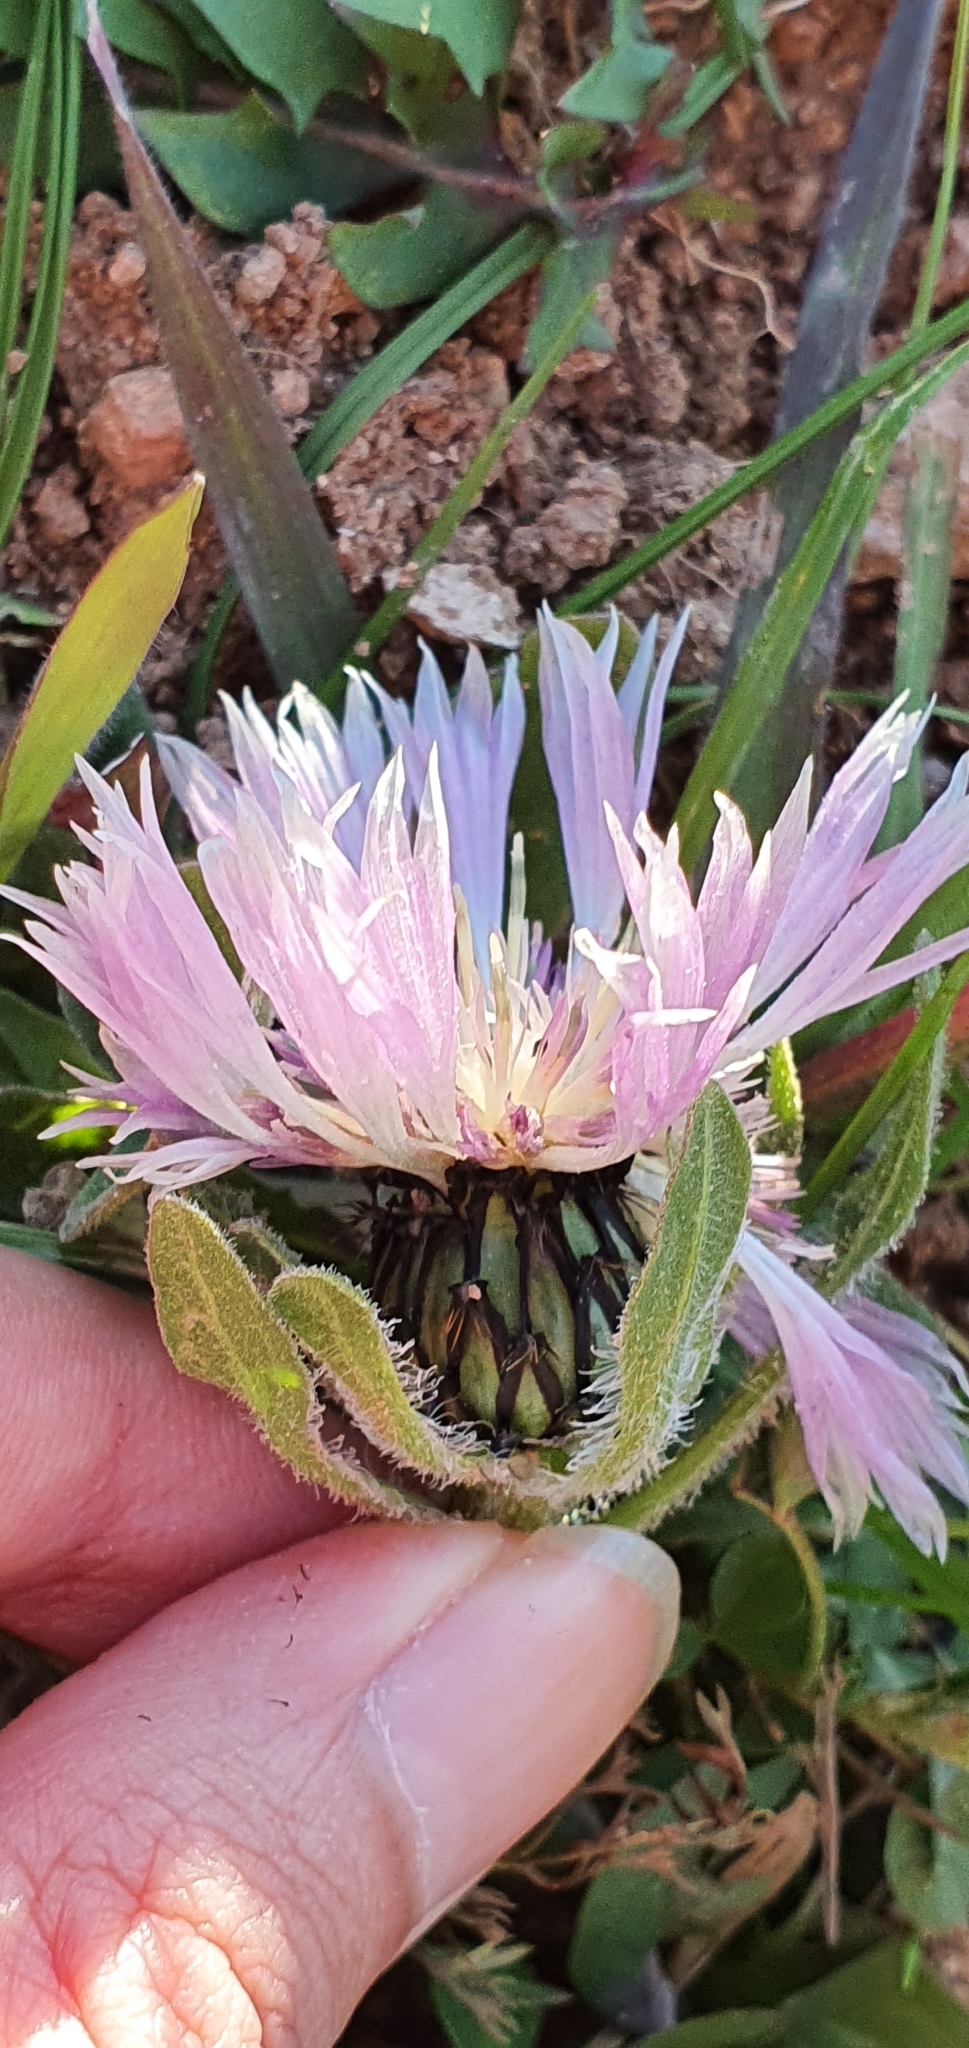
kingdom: Plantae
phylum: Tracheophyta
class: Magnoliopsida
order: Asterales
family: Asteraceae
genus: Centaurea
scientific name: Centaurea pullata
